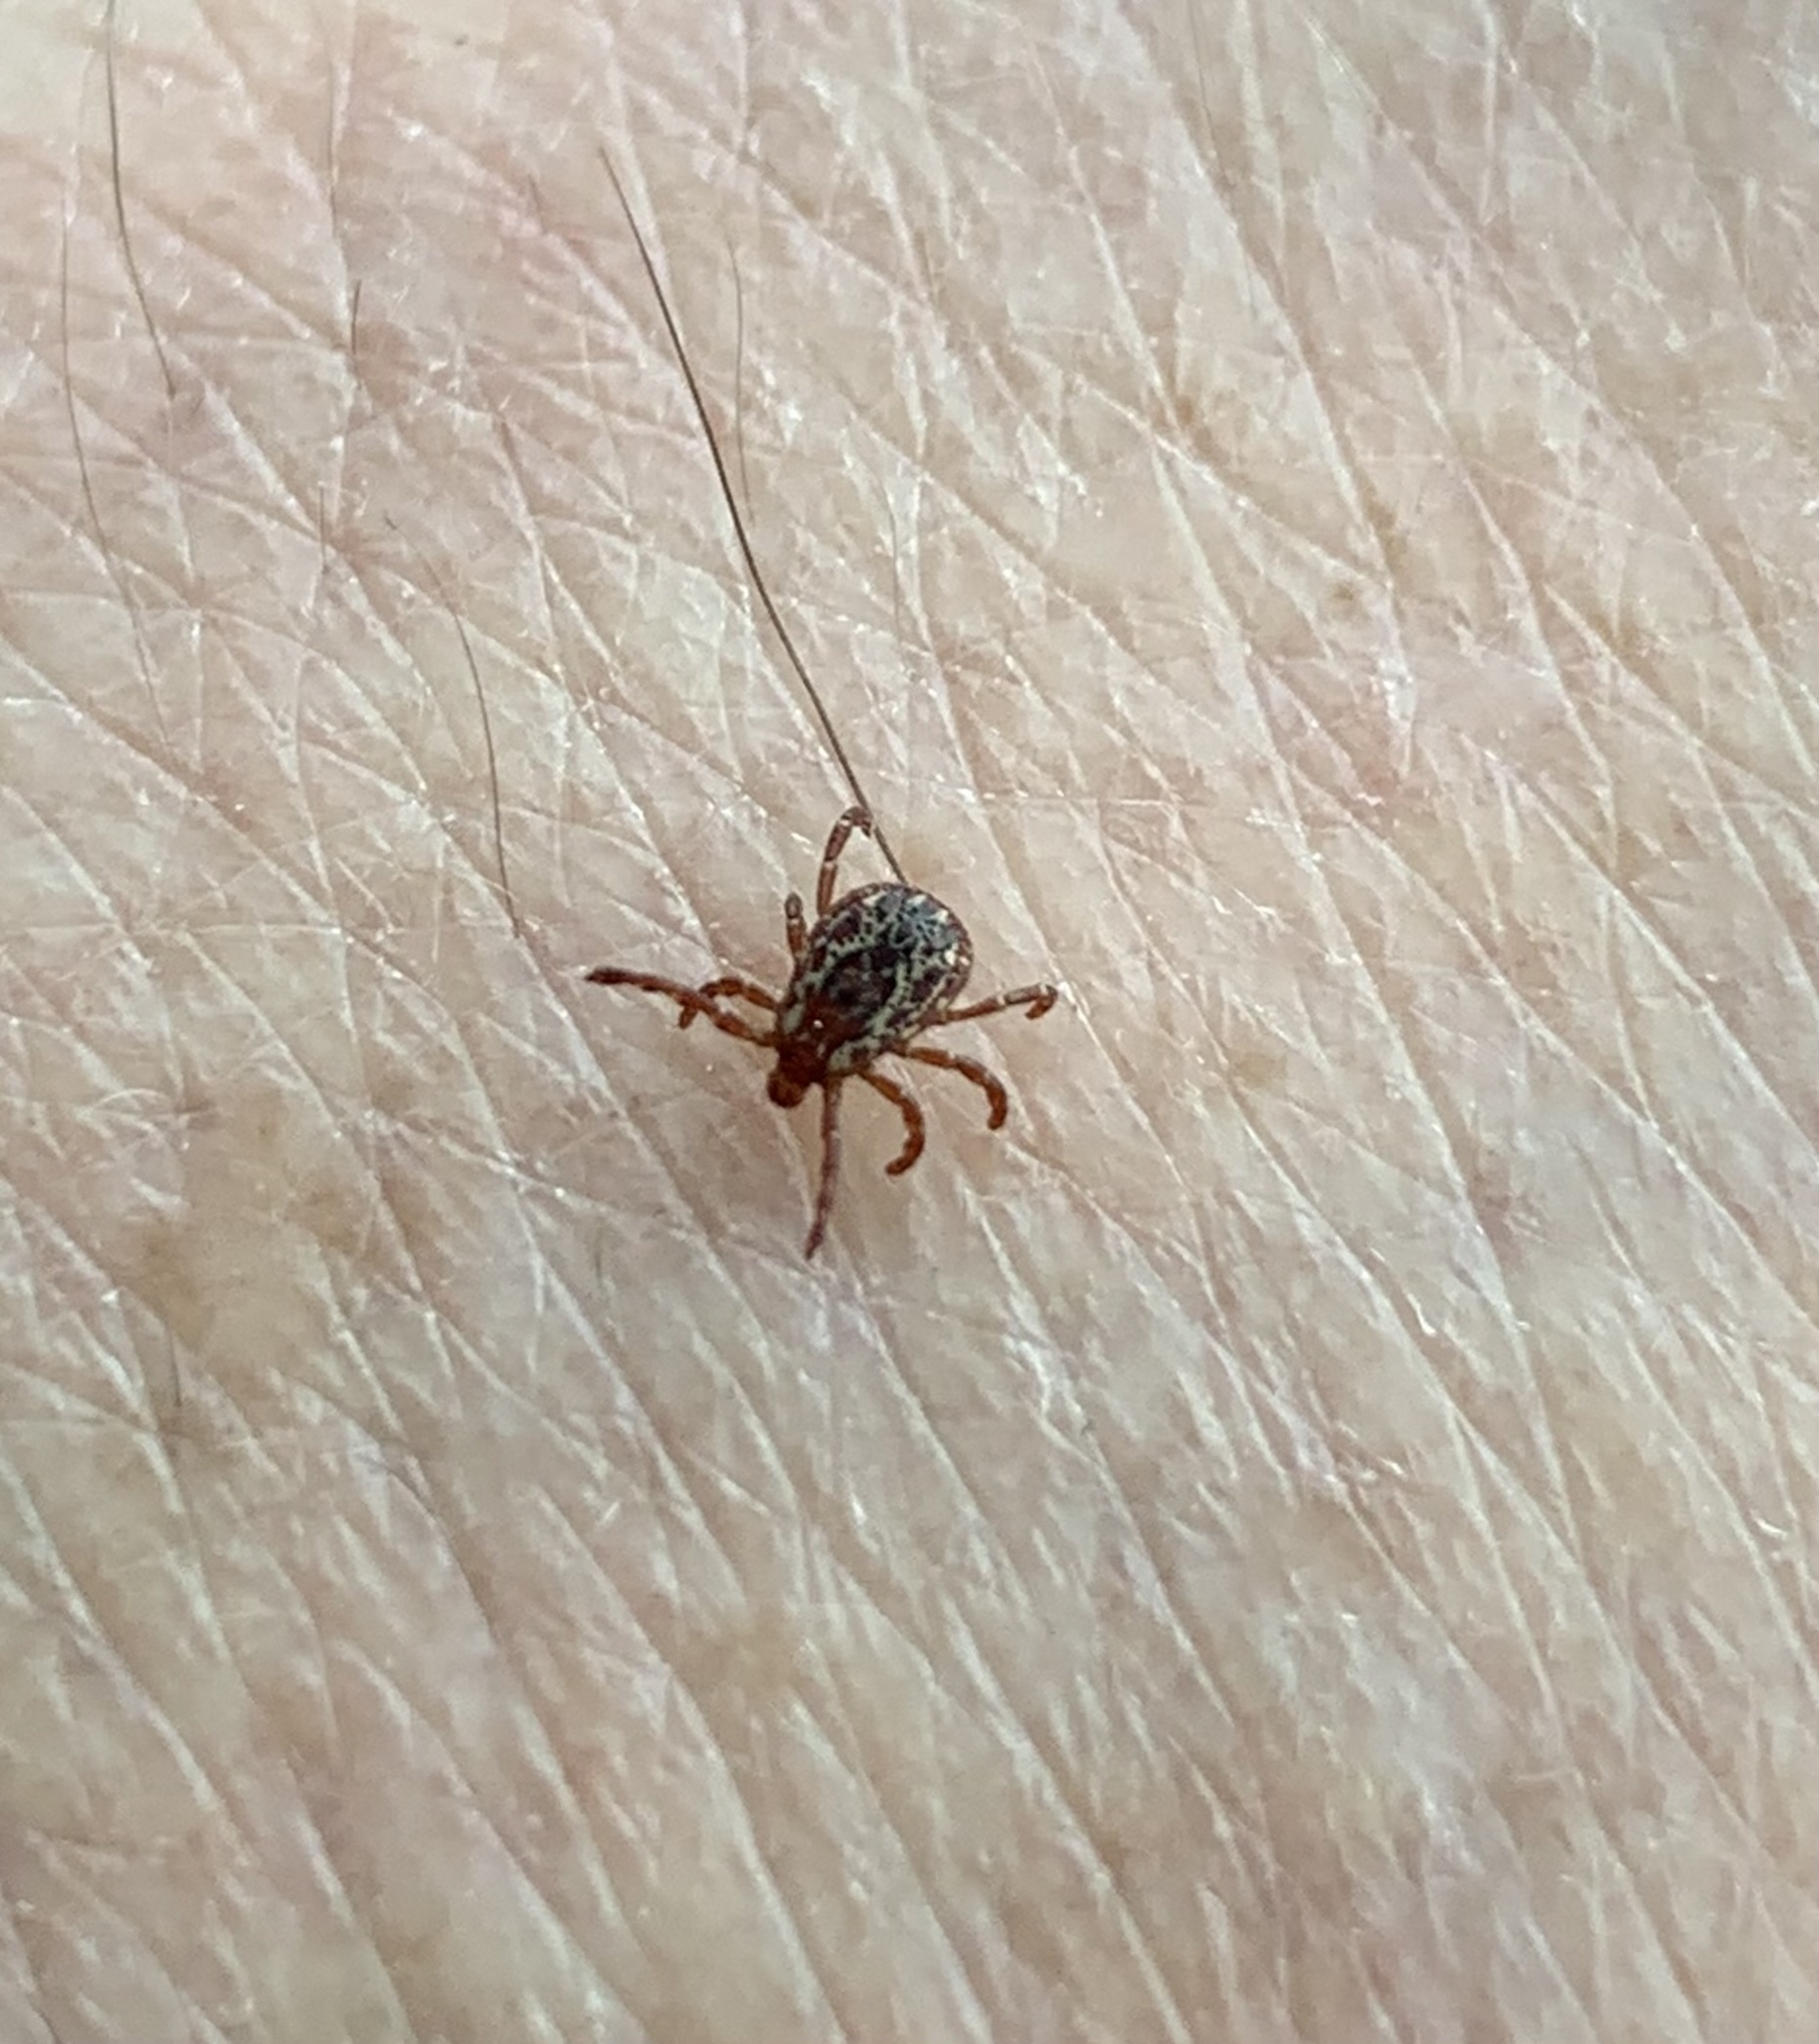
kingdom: Animalia
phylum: Arthropoda
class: Arachnida
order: Ixodida
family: Ixodidae
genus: Dermacentor
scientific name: Dermacentor variabilis
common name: American dog tick
